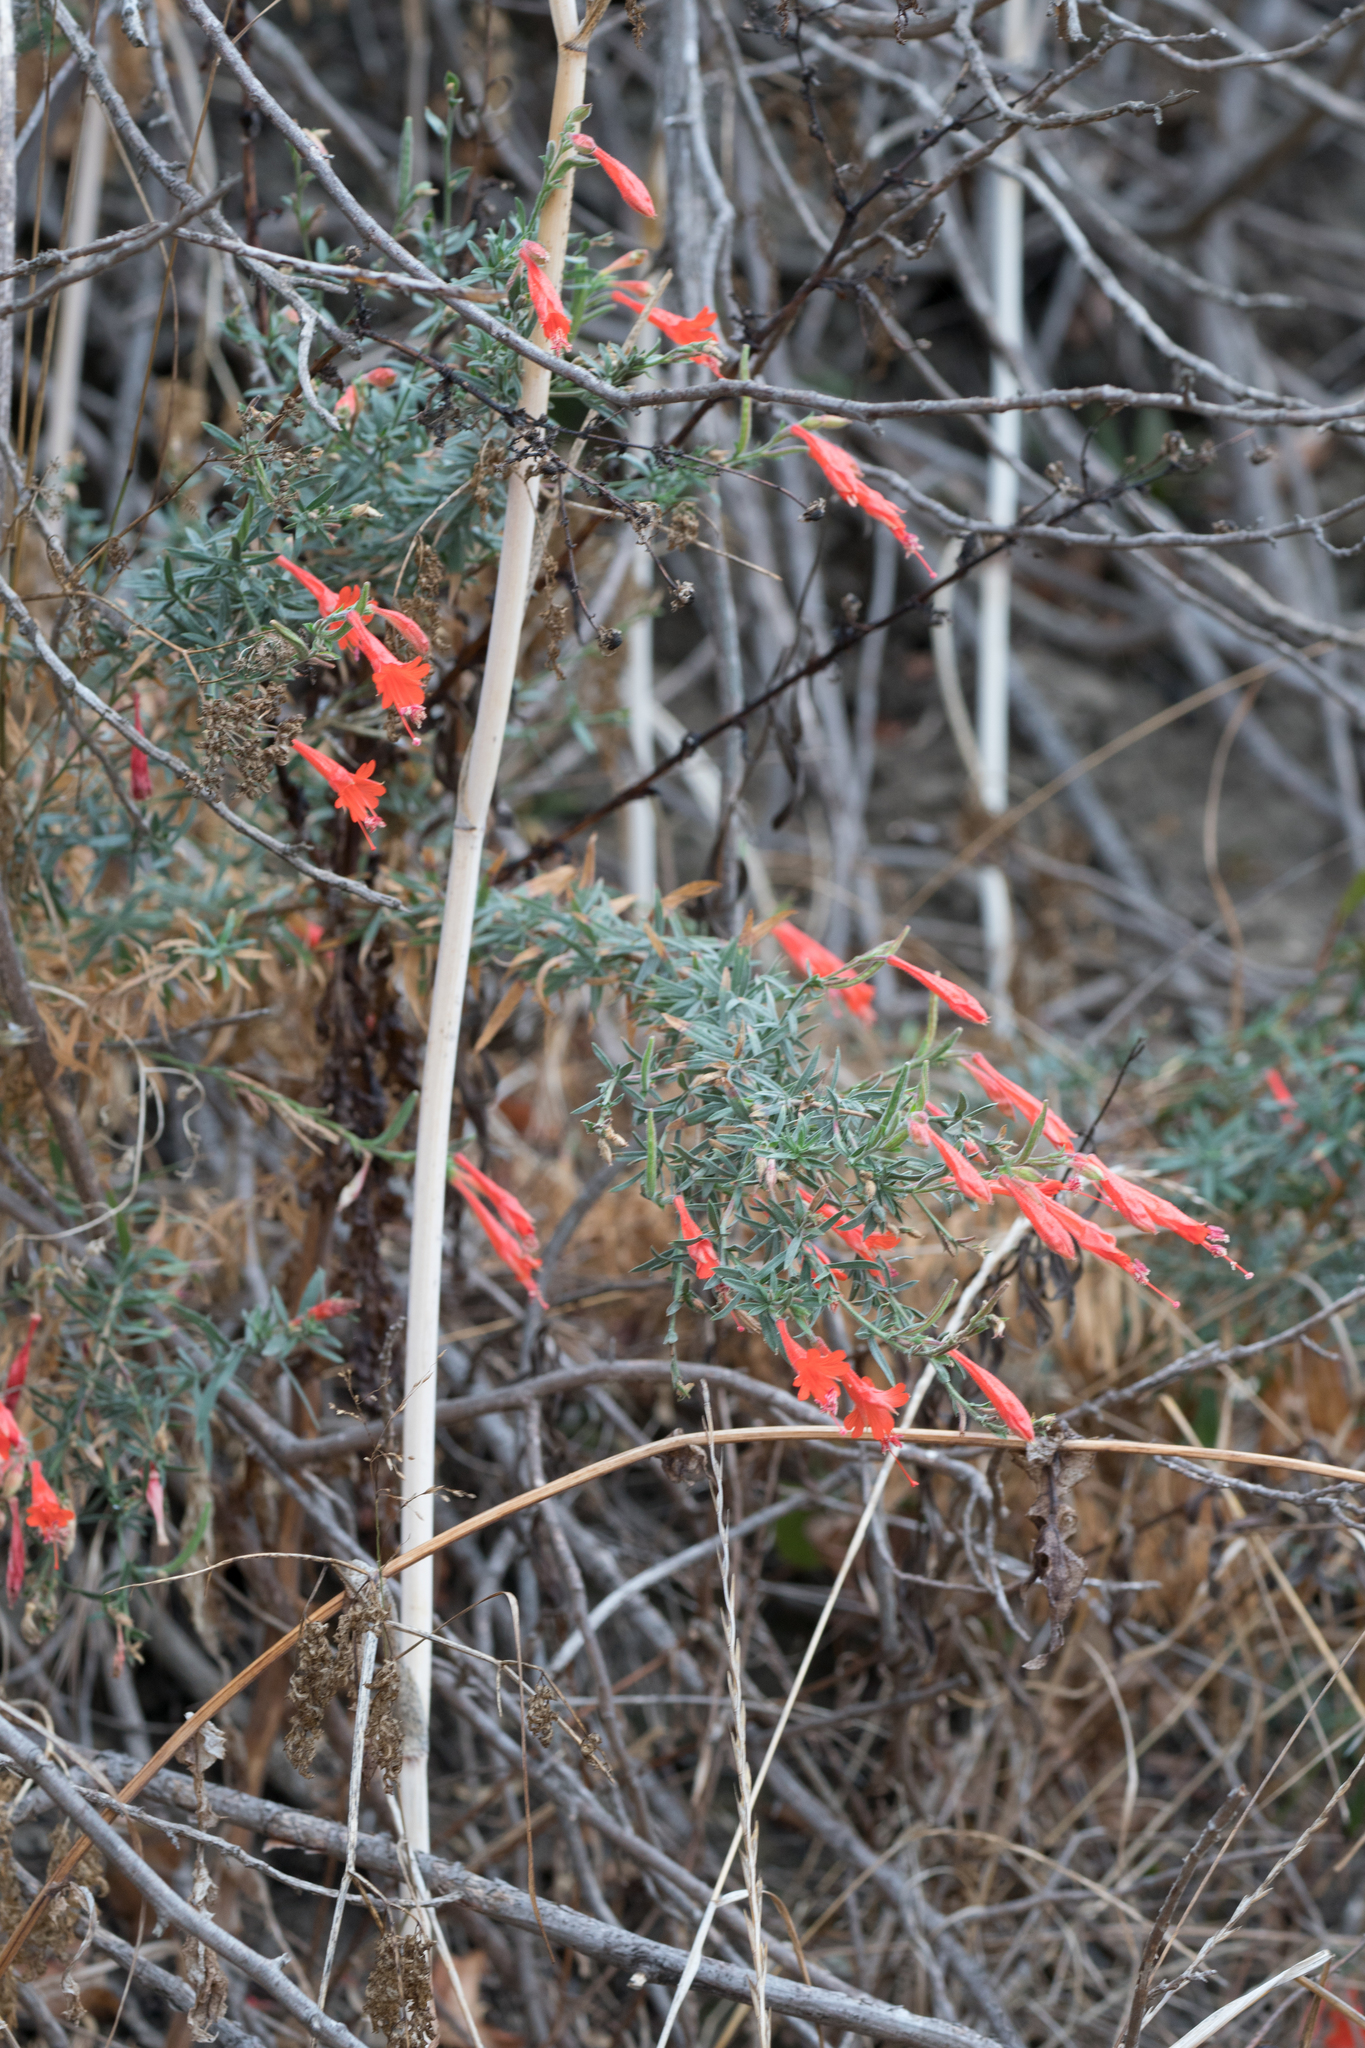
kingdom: Plantae
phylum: Tracheophyta
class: Magnoliopsida
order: Myrtales
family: Onagraceae
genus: Epilobium
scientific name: Epilobium canum
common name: California-fuchsia
